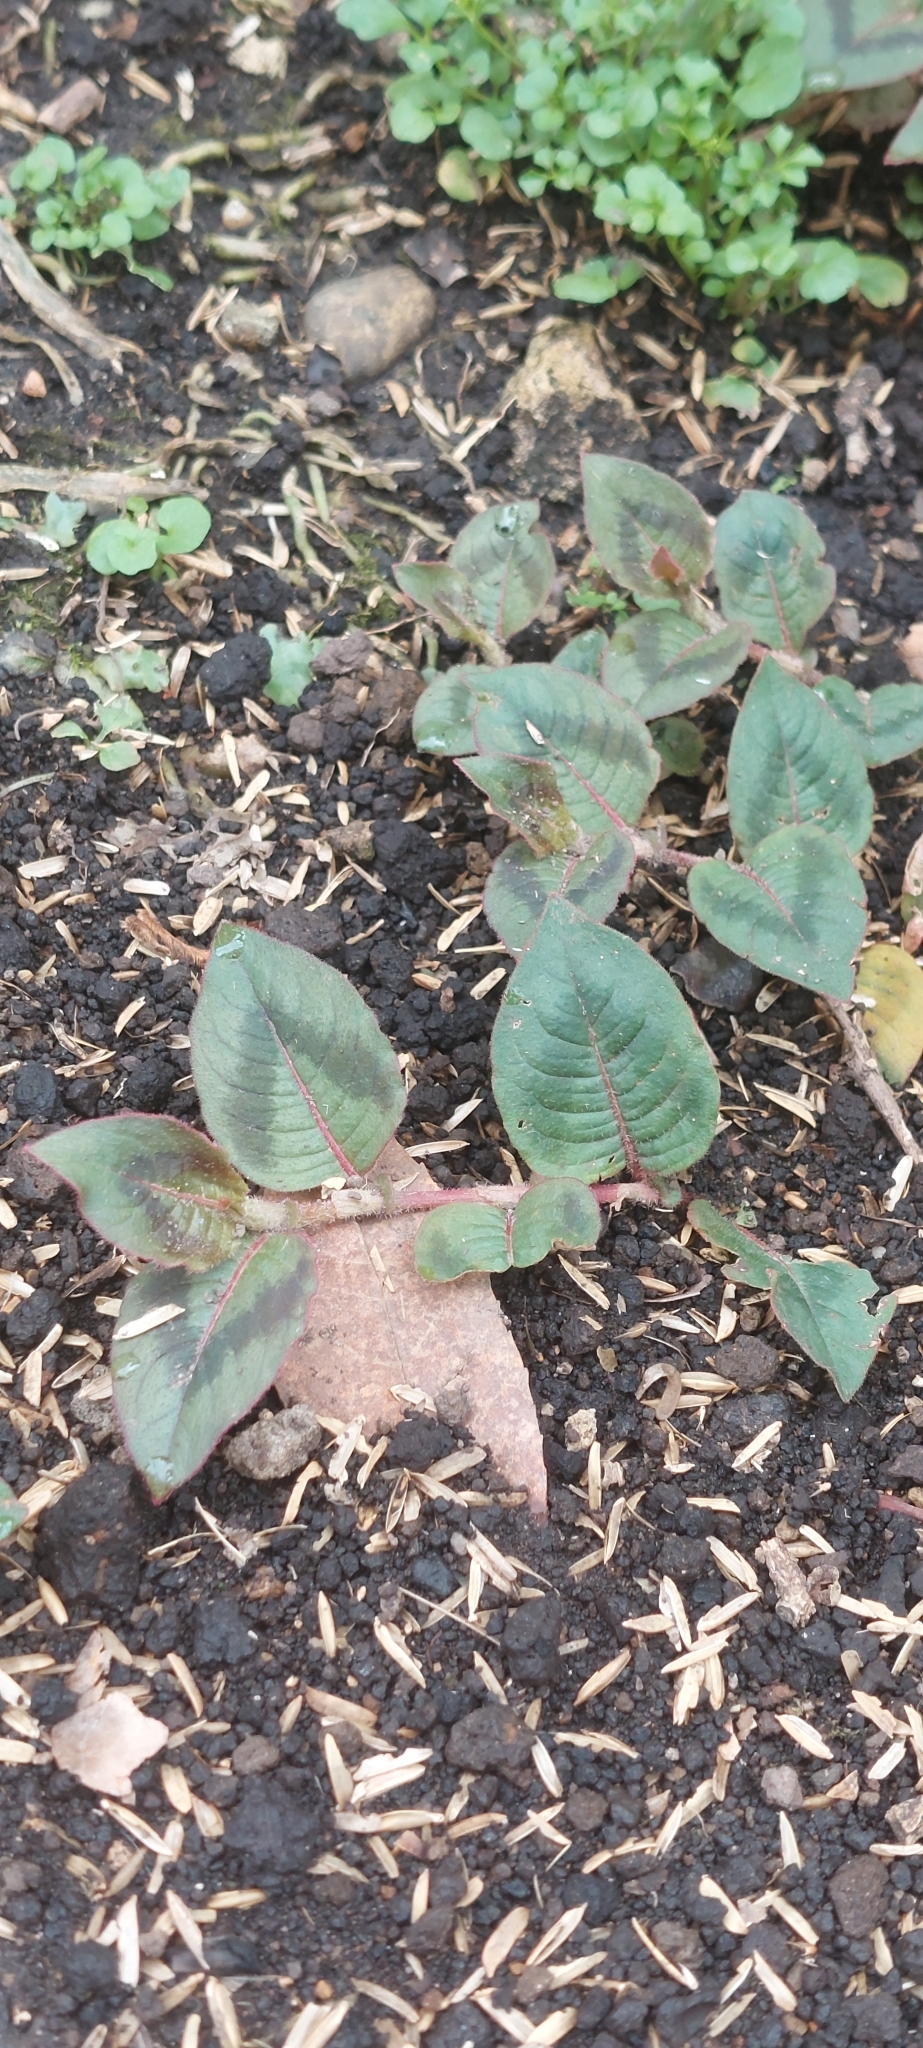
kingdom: Plantae
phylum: Tracheophyta
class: Magnoliopsida
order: Caryophyllales
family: Polygonaceae
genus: Persicaria
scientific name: Persicaria capitata
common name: Pinkhead smartweed
